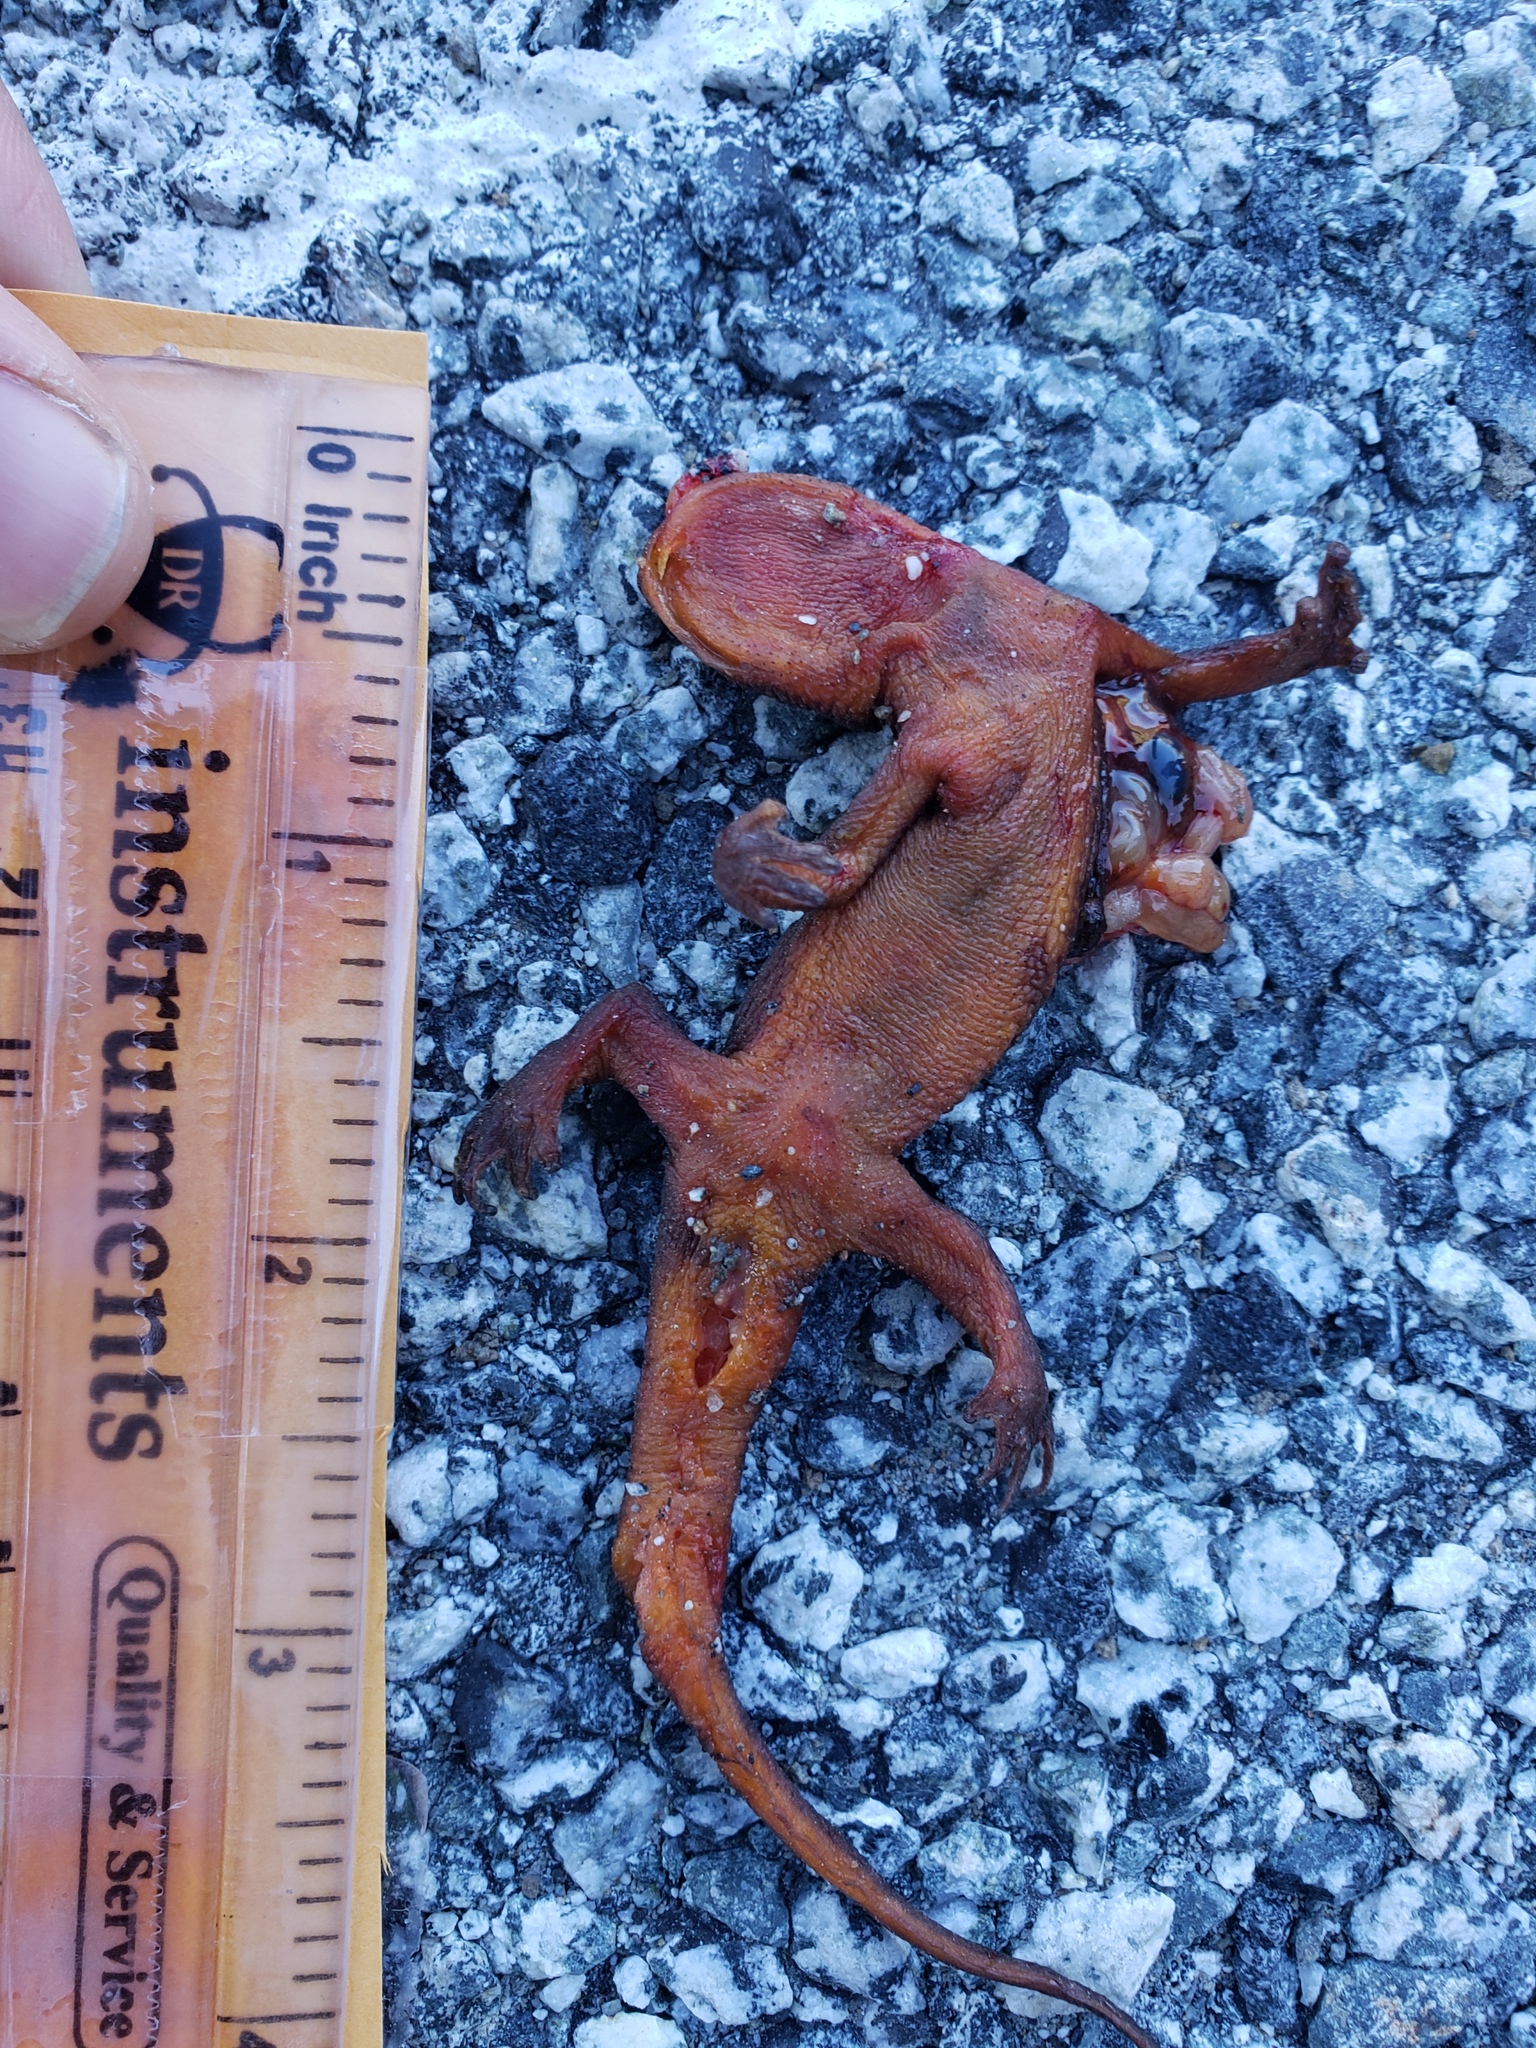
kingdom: Animalia
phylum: Chordata
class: Amphibia
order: Caudata
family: Salamandridae
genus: Taricha
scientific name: Taricha
